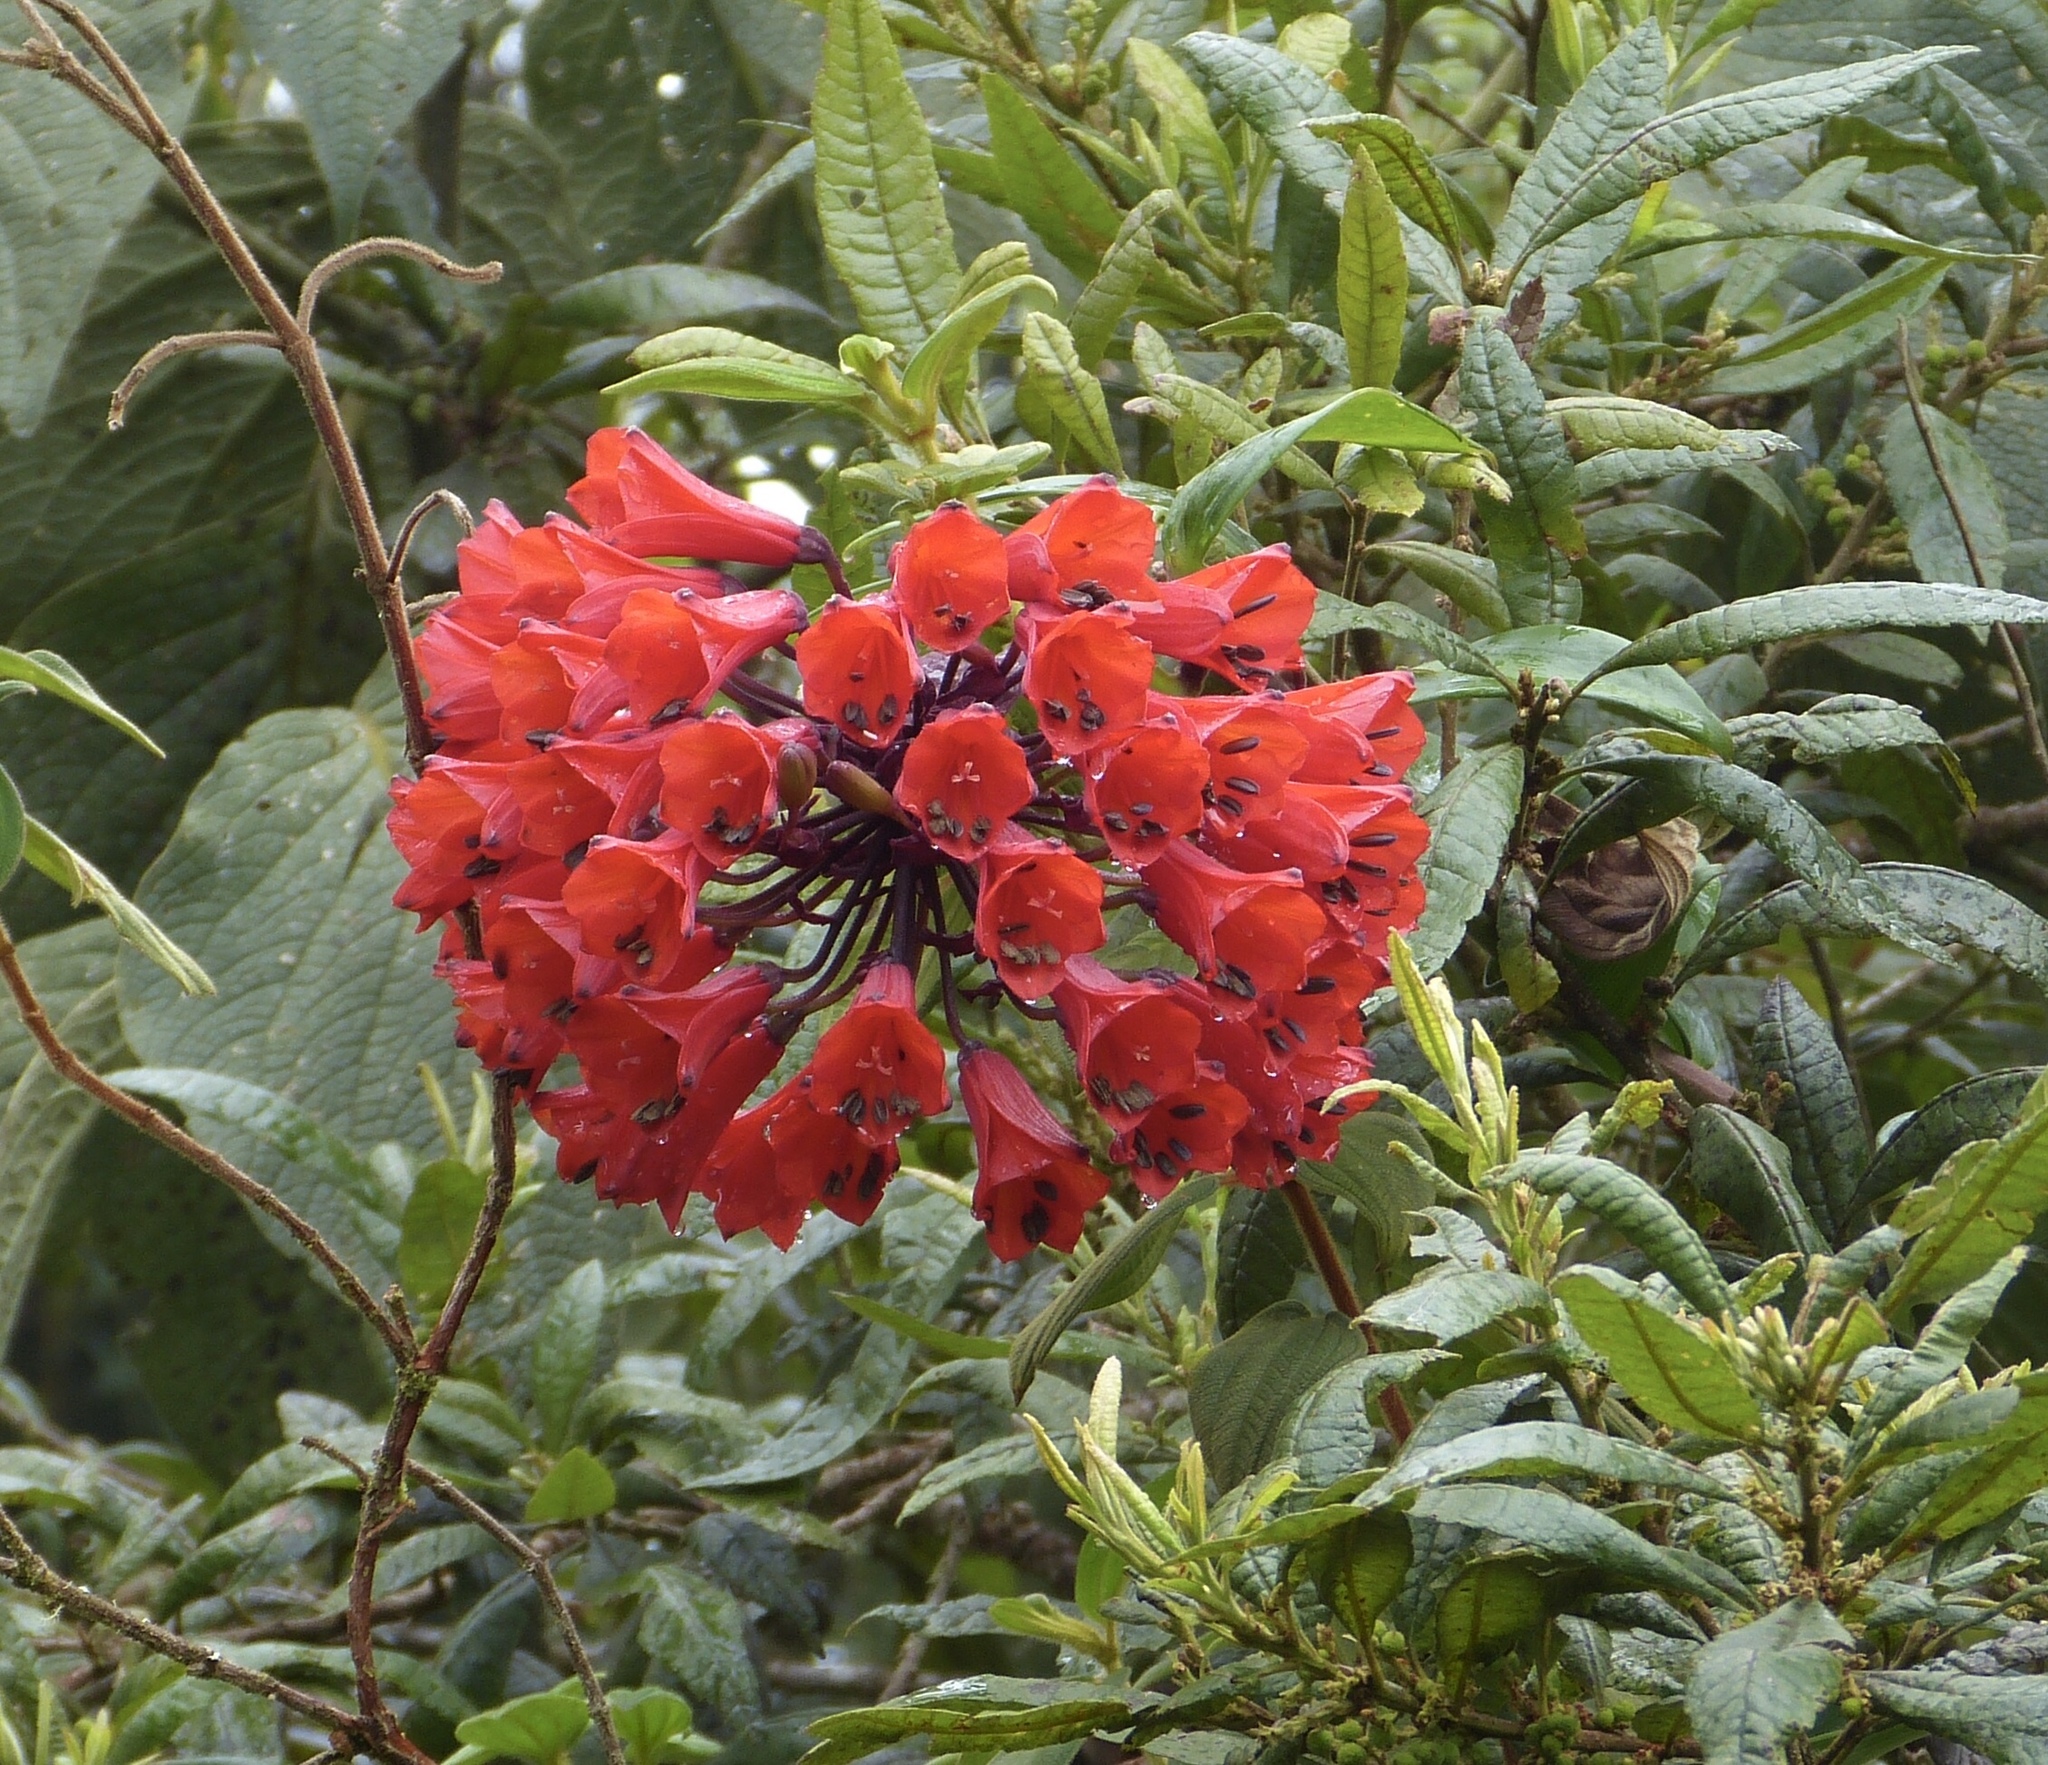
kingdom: Plantae
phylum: Tracheophyta
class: Liliopsida
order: Liliales
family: Alstroemeriaceae
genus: Bomarea
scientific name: Bomarea patinii
